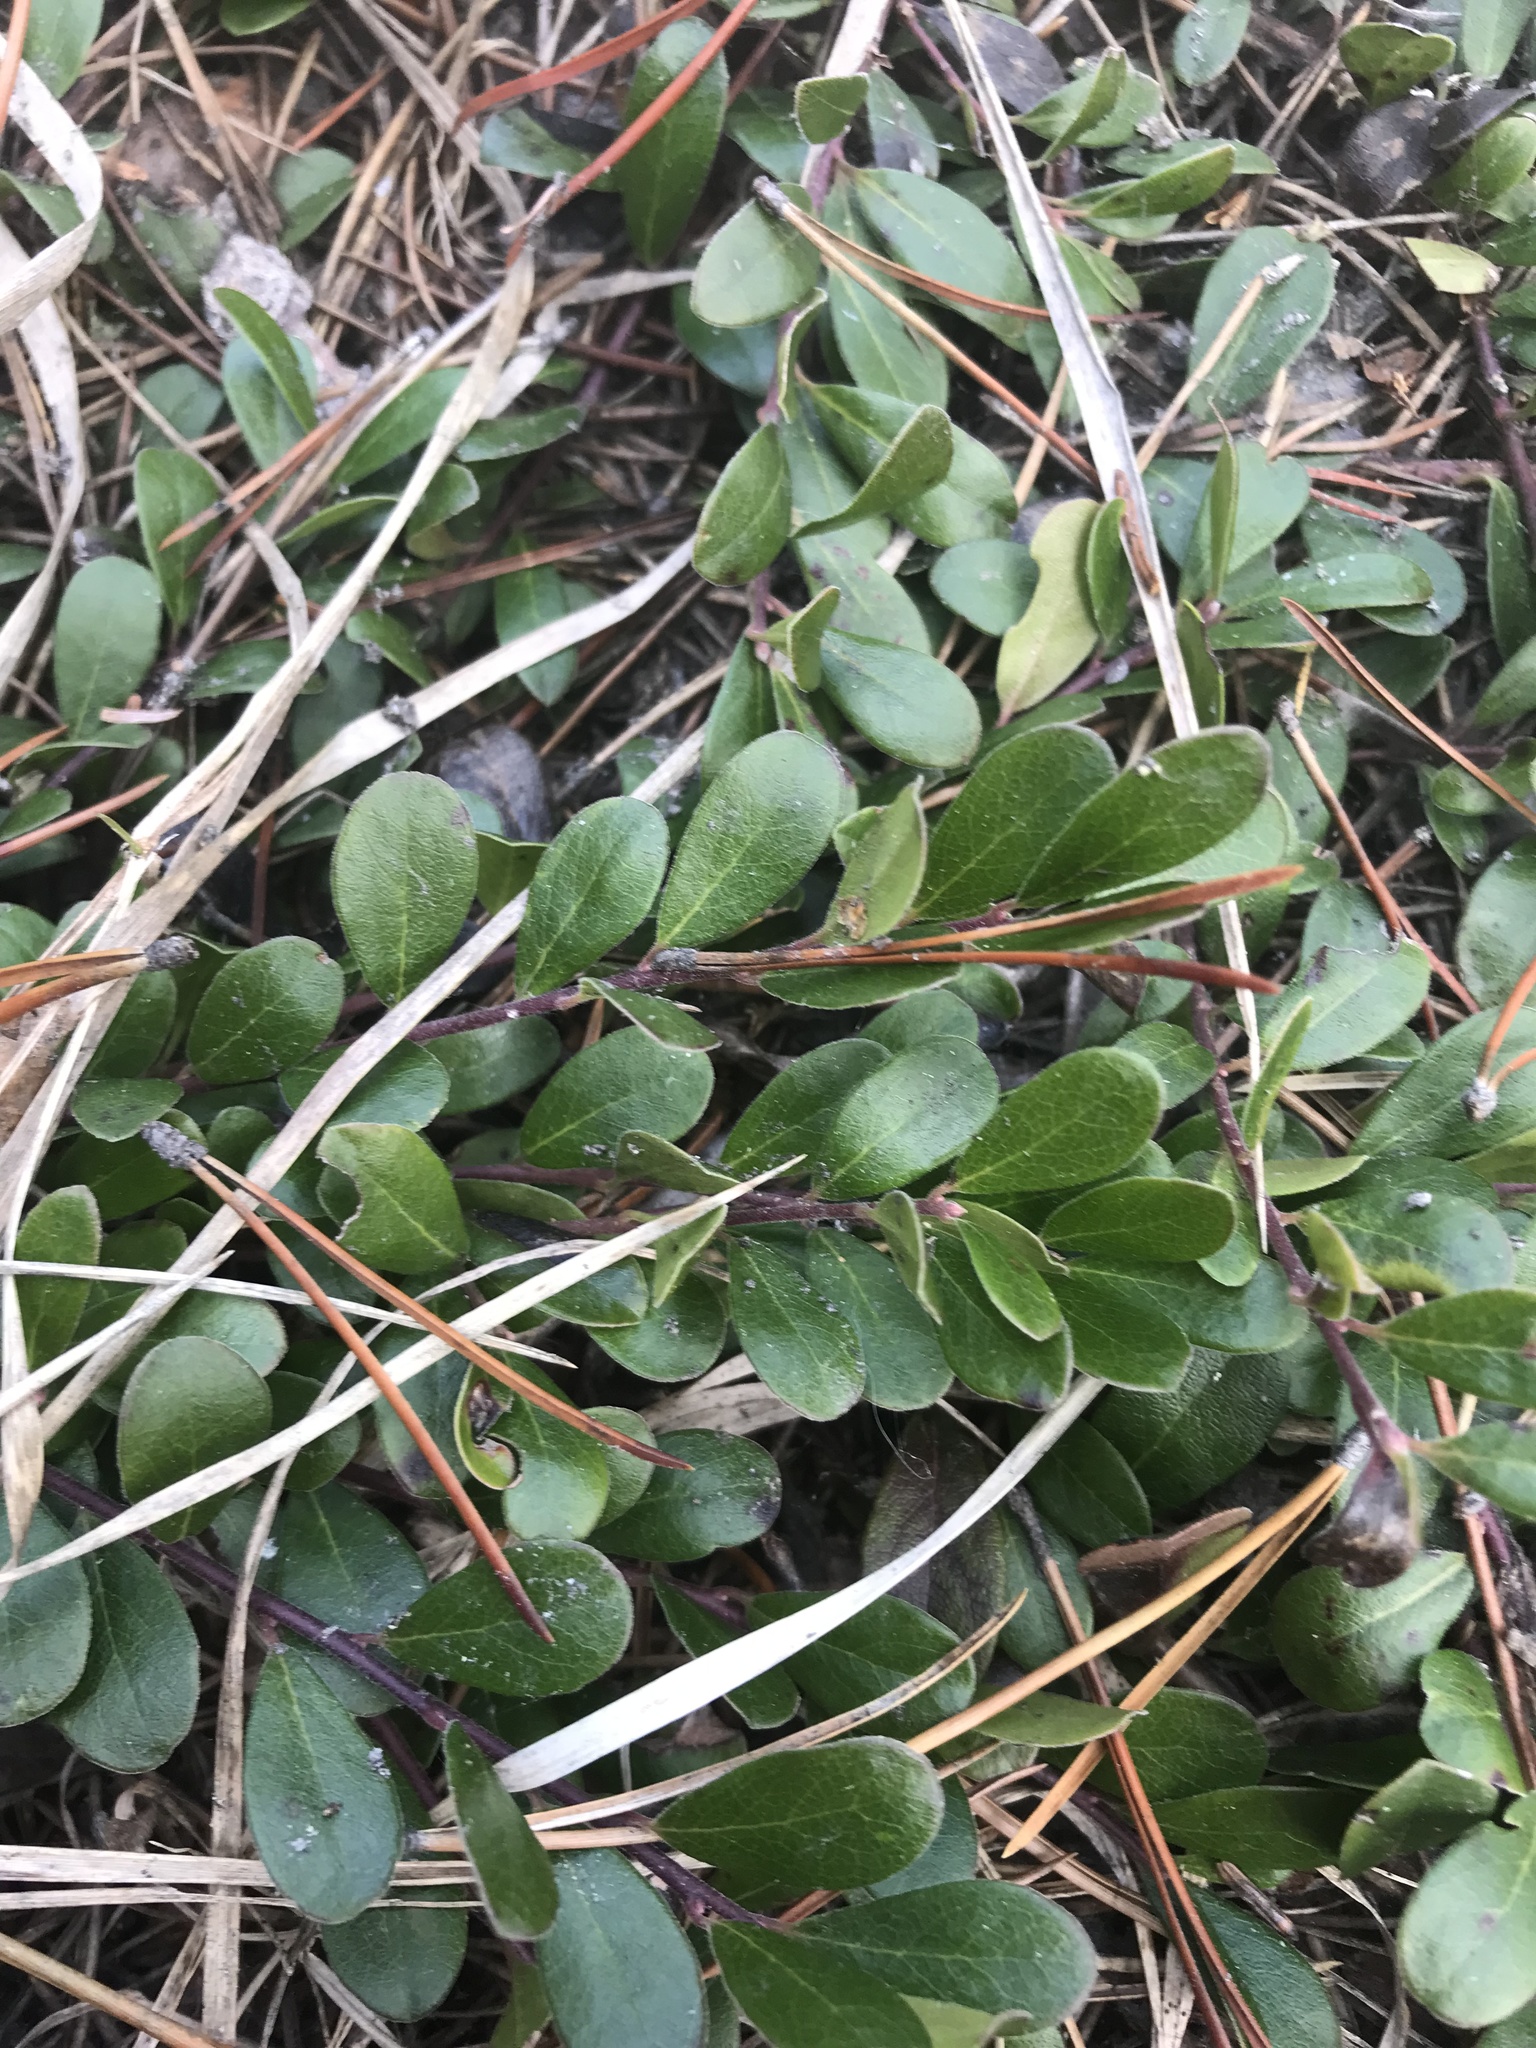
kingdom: Plantae
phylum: Tracheophyta
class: Magnoliopsida
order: Ericales
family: Ericaceae
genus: Arctostaphylos
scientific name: Arctostaphylos uva-ursi
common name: Bearberry
